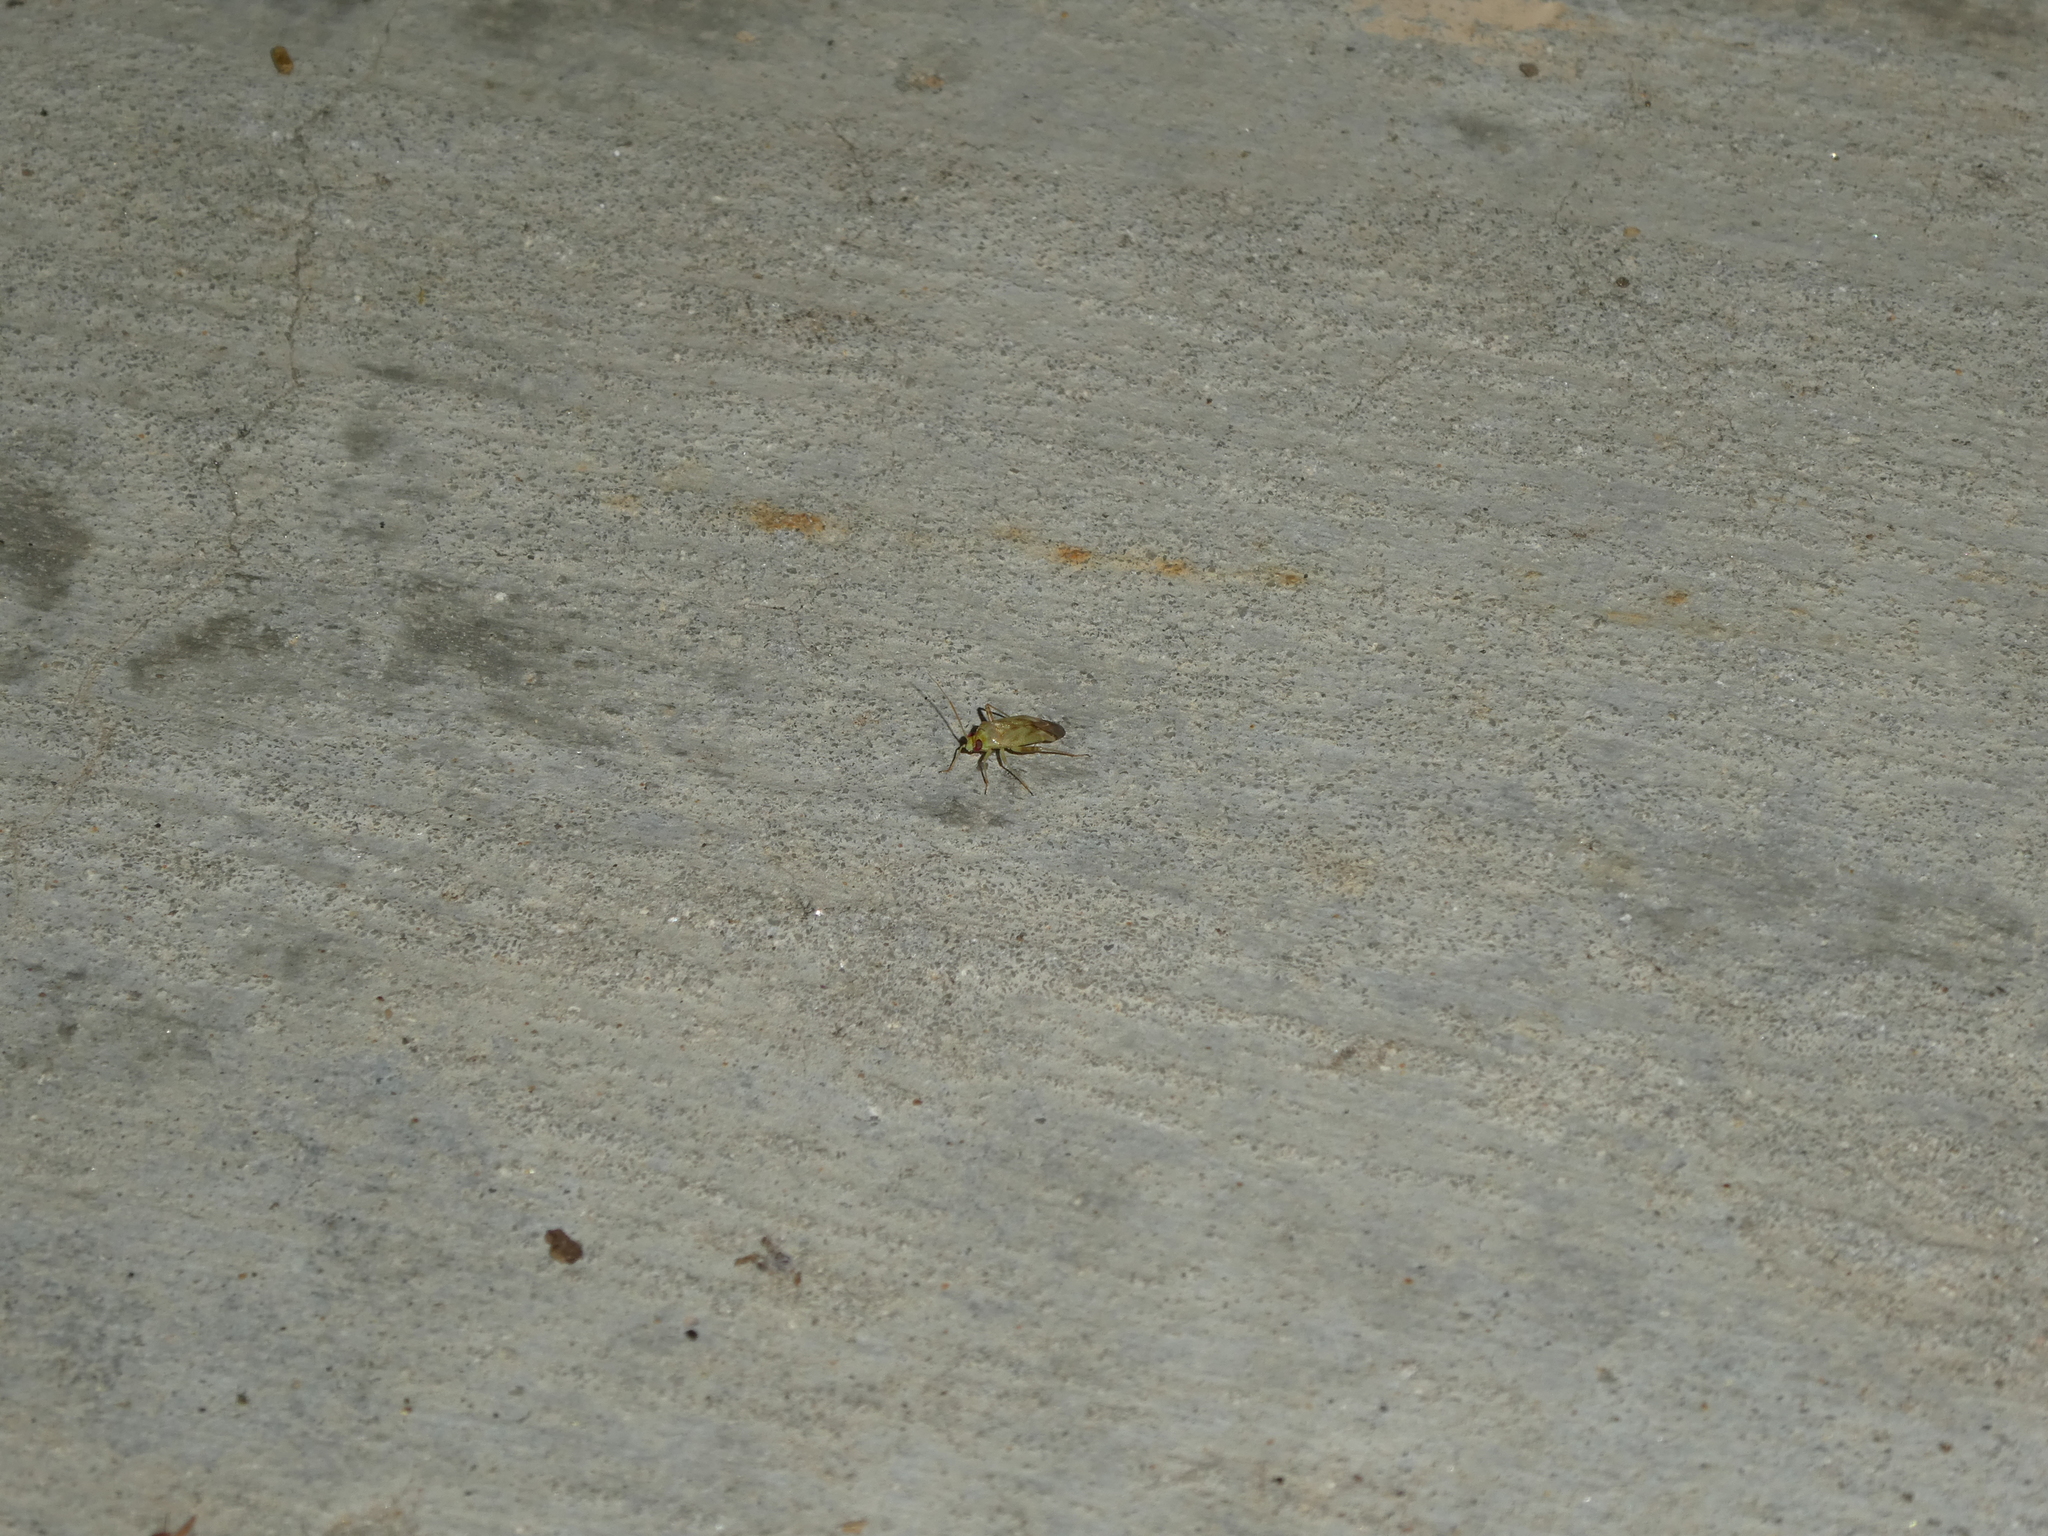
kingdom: Animalia
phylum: Arthropoda
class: Insecta
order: Hemiptera
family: Miridae
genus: Taylorilygus
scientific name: Taylorilygus apicalis
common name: Plant bug
